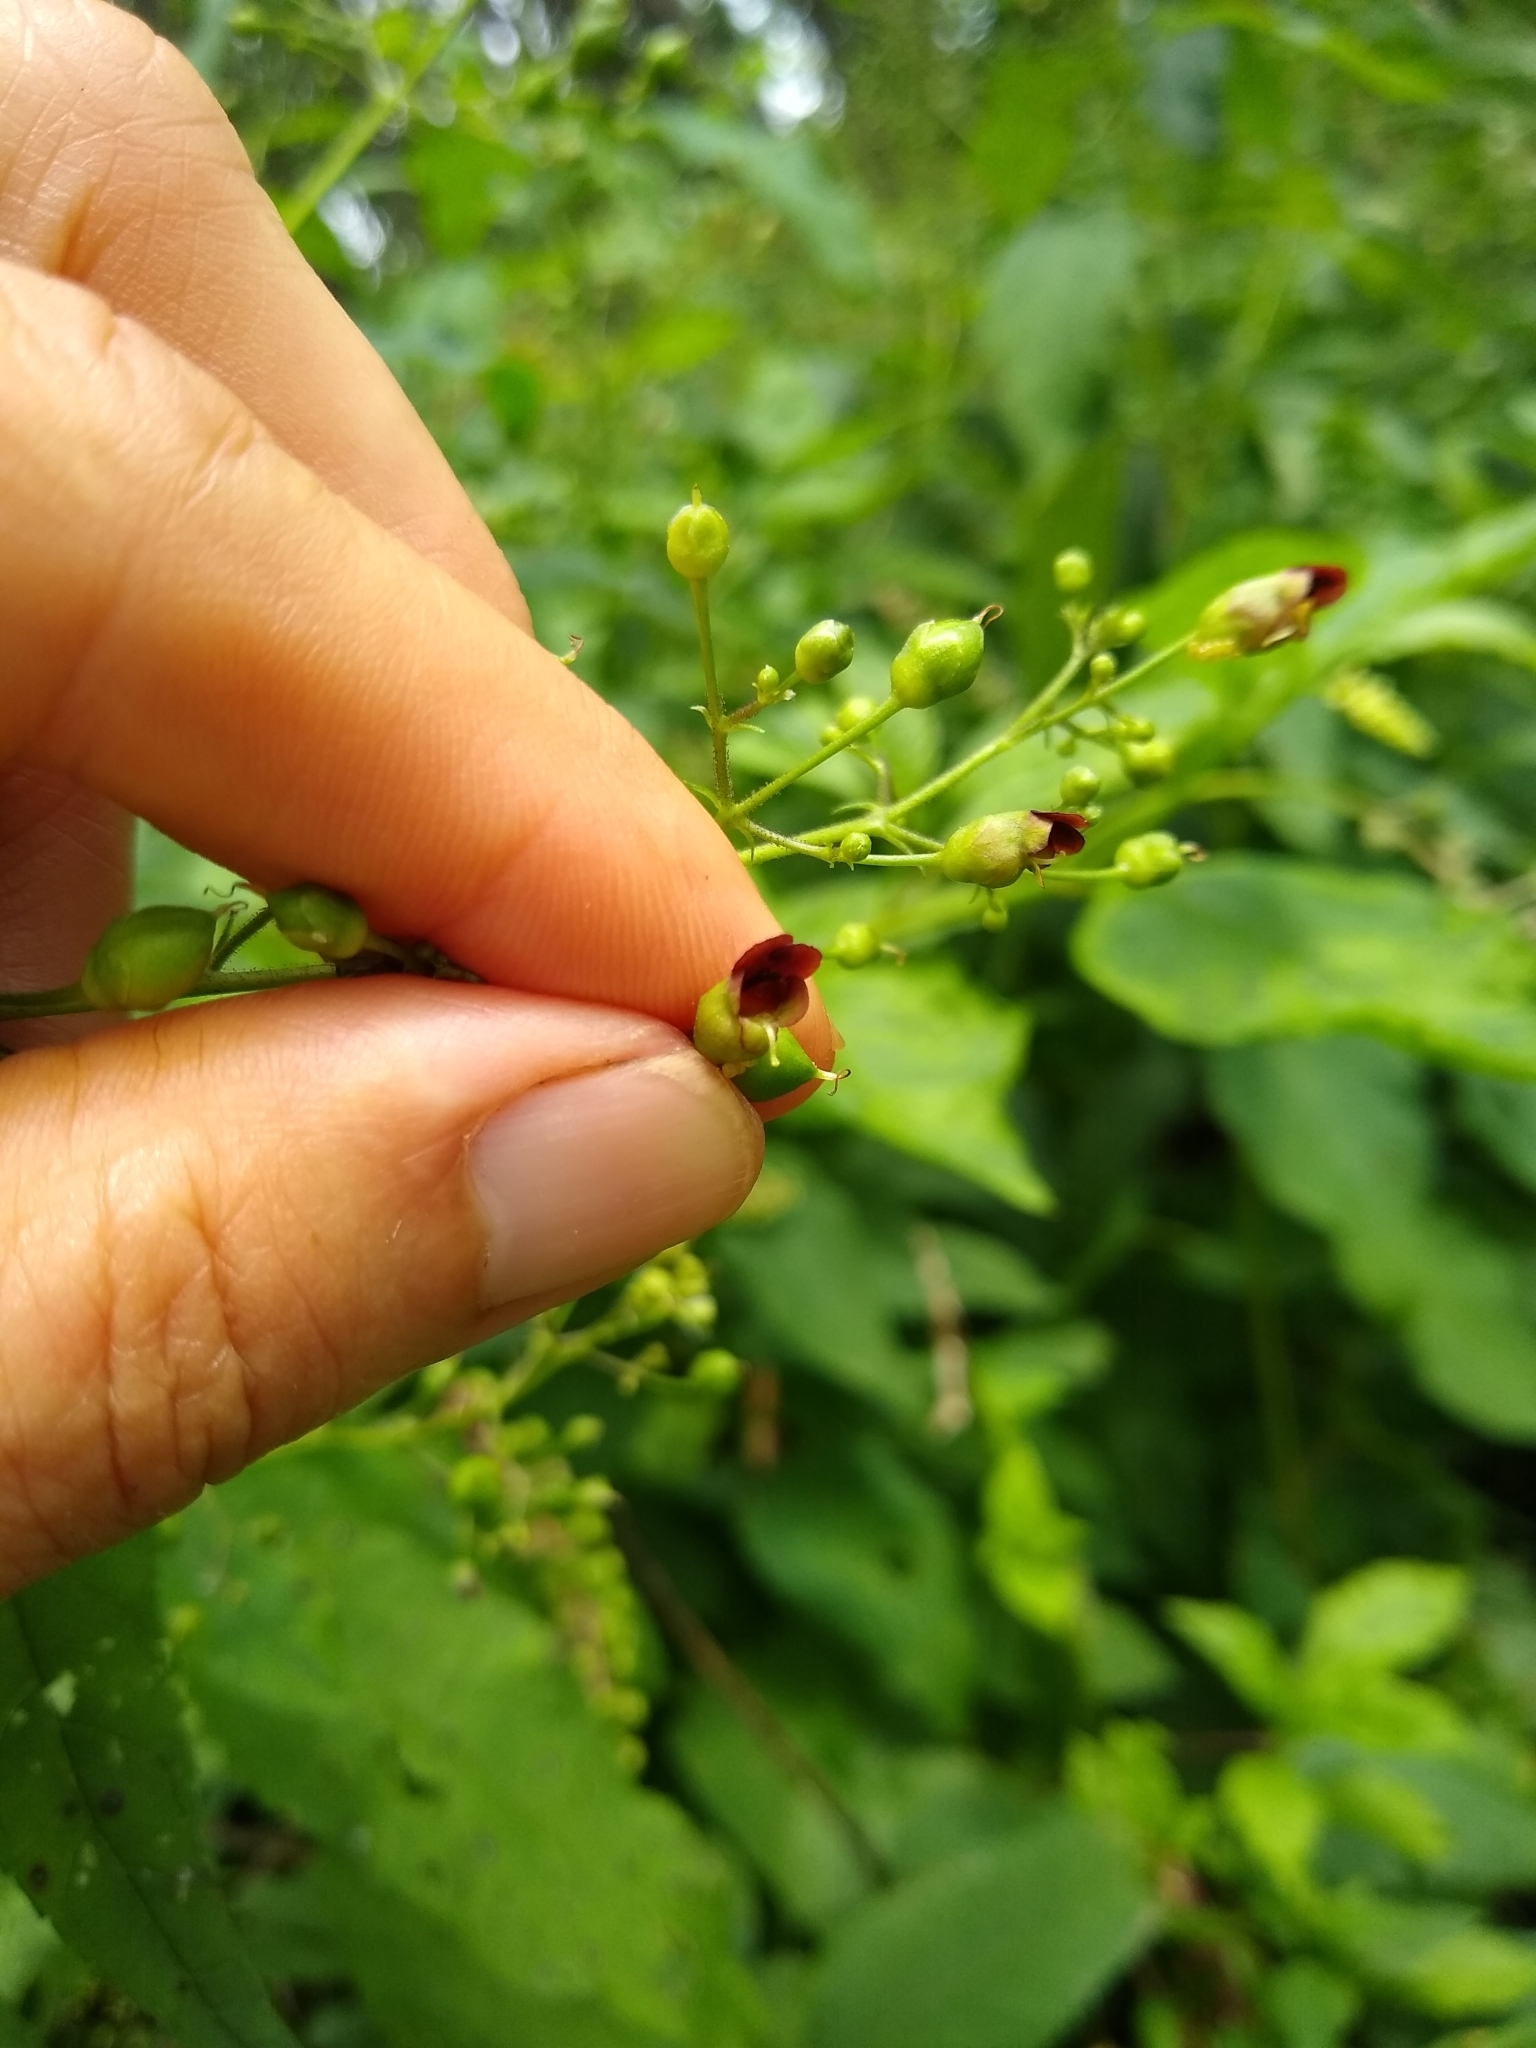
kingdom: Plantae
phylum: Tracheophyta
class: Magnoliopsida
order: Lamiales
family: Scrophulariaceae
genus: Scrophularia
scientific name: Scrophularia marilandica
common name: Eastern figwort
